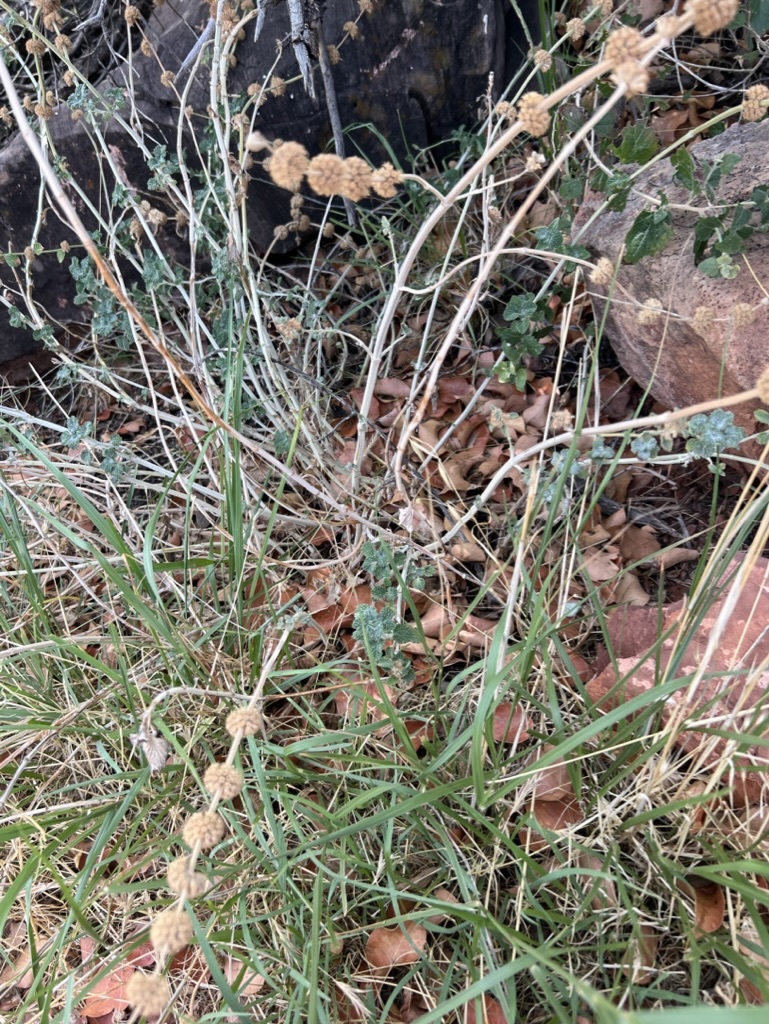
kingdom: Plantae
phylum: Tracheophyta
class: Magnoliopsida
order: Lamiales
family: Lamiaceae
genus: Marrubium
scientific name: Marrubium vulgare
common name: Horehound
